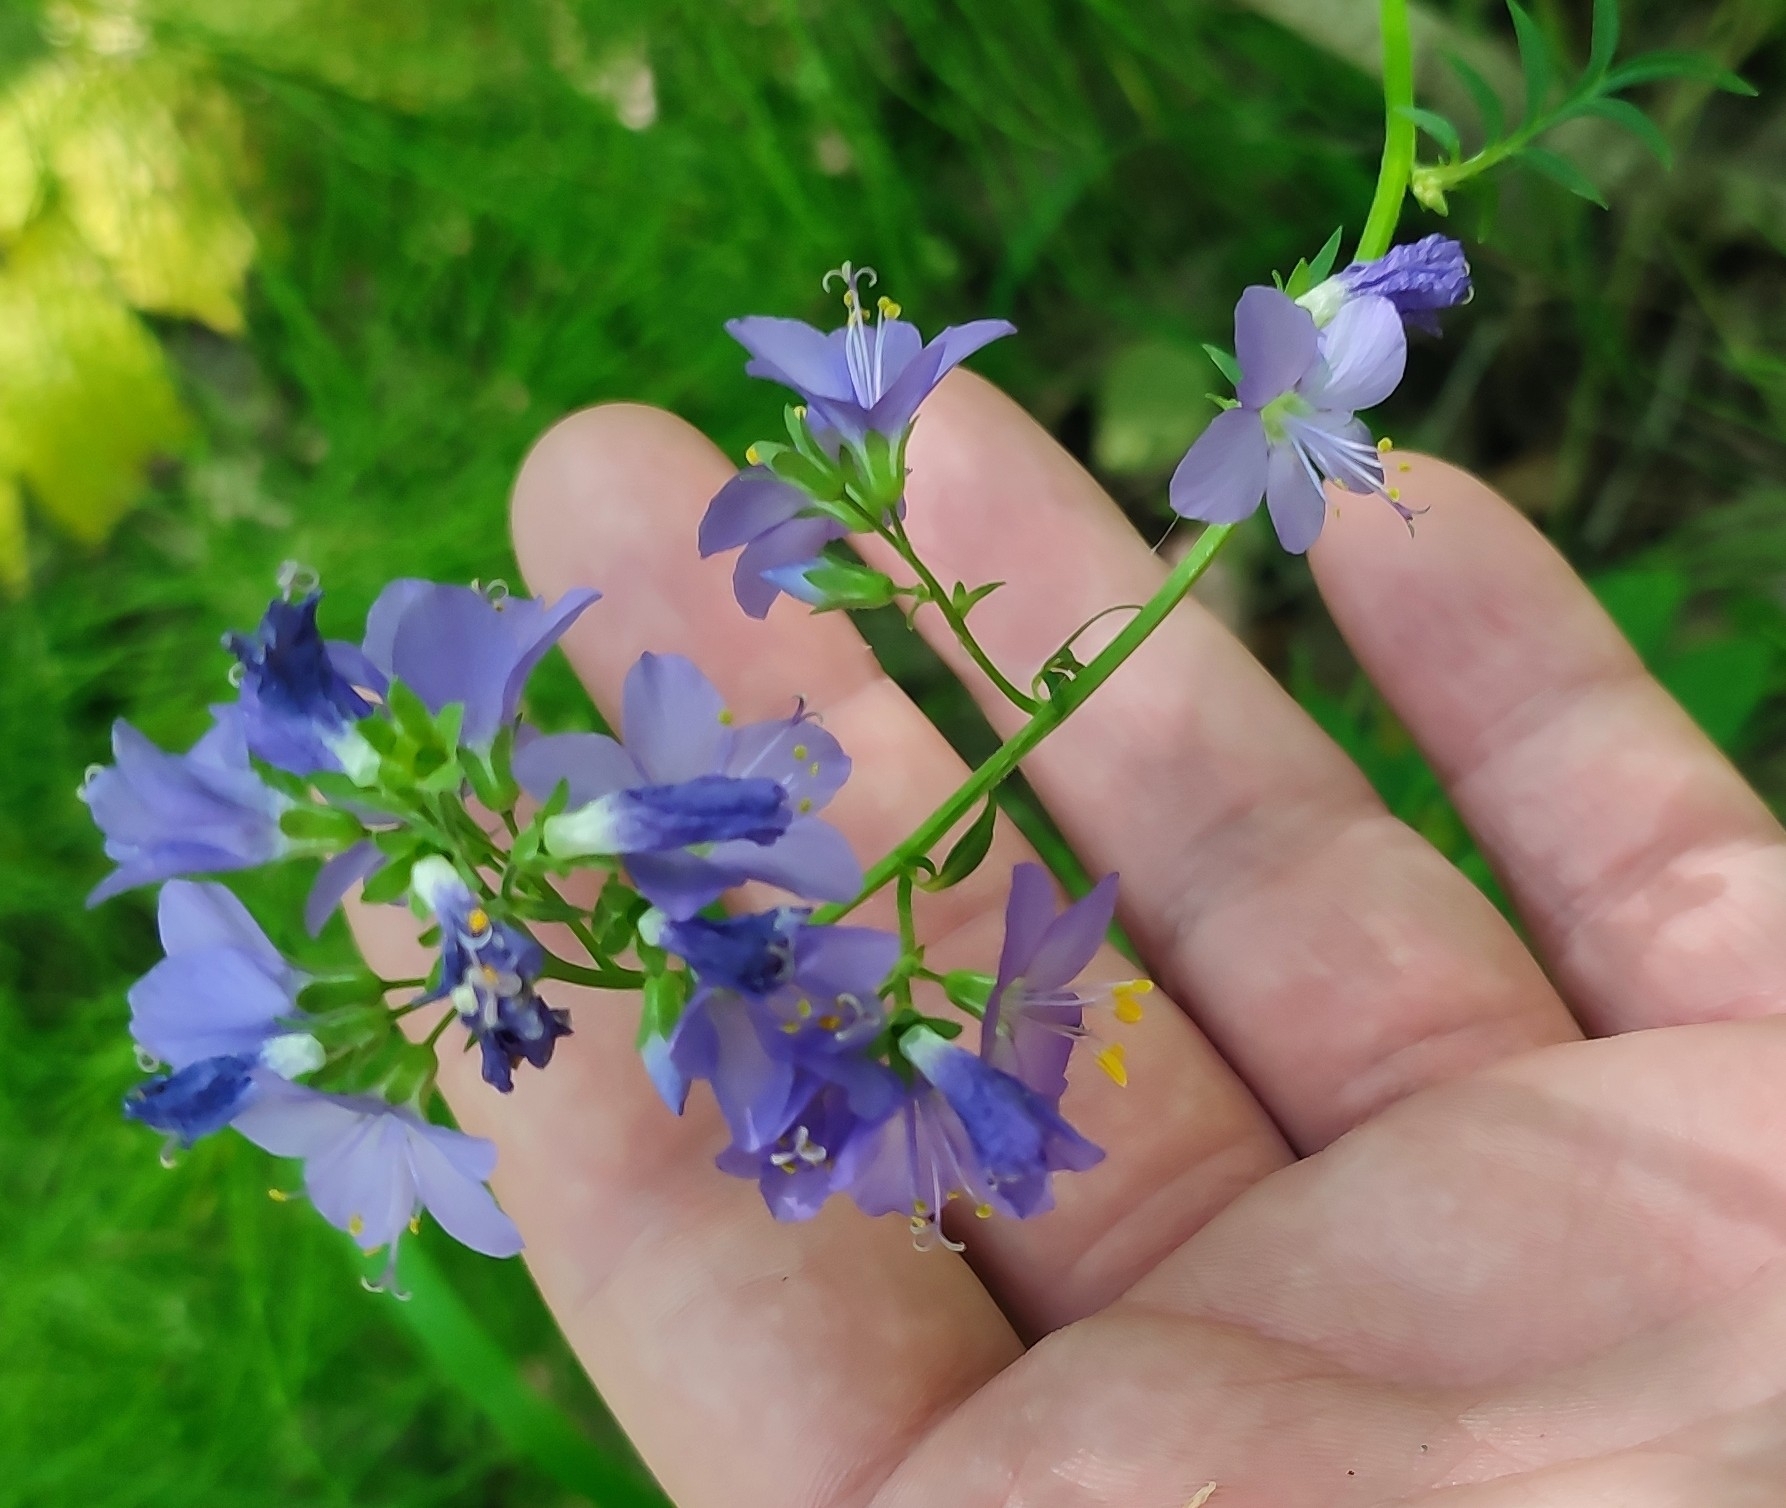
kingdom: Plantae
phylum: Tracheophyta
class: Magnoliopsida
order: Ericales
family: Polemoniaceae
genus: Polemonium
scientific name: Polemonium caeruleum
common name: Jacob's-ladder
